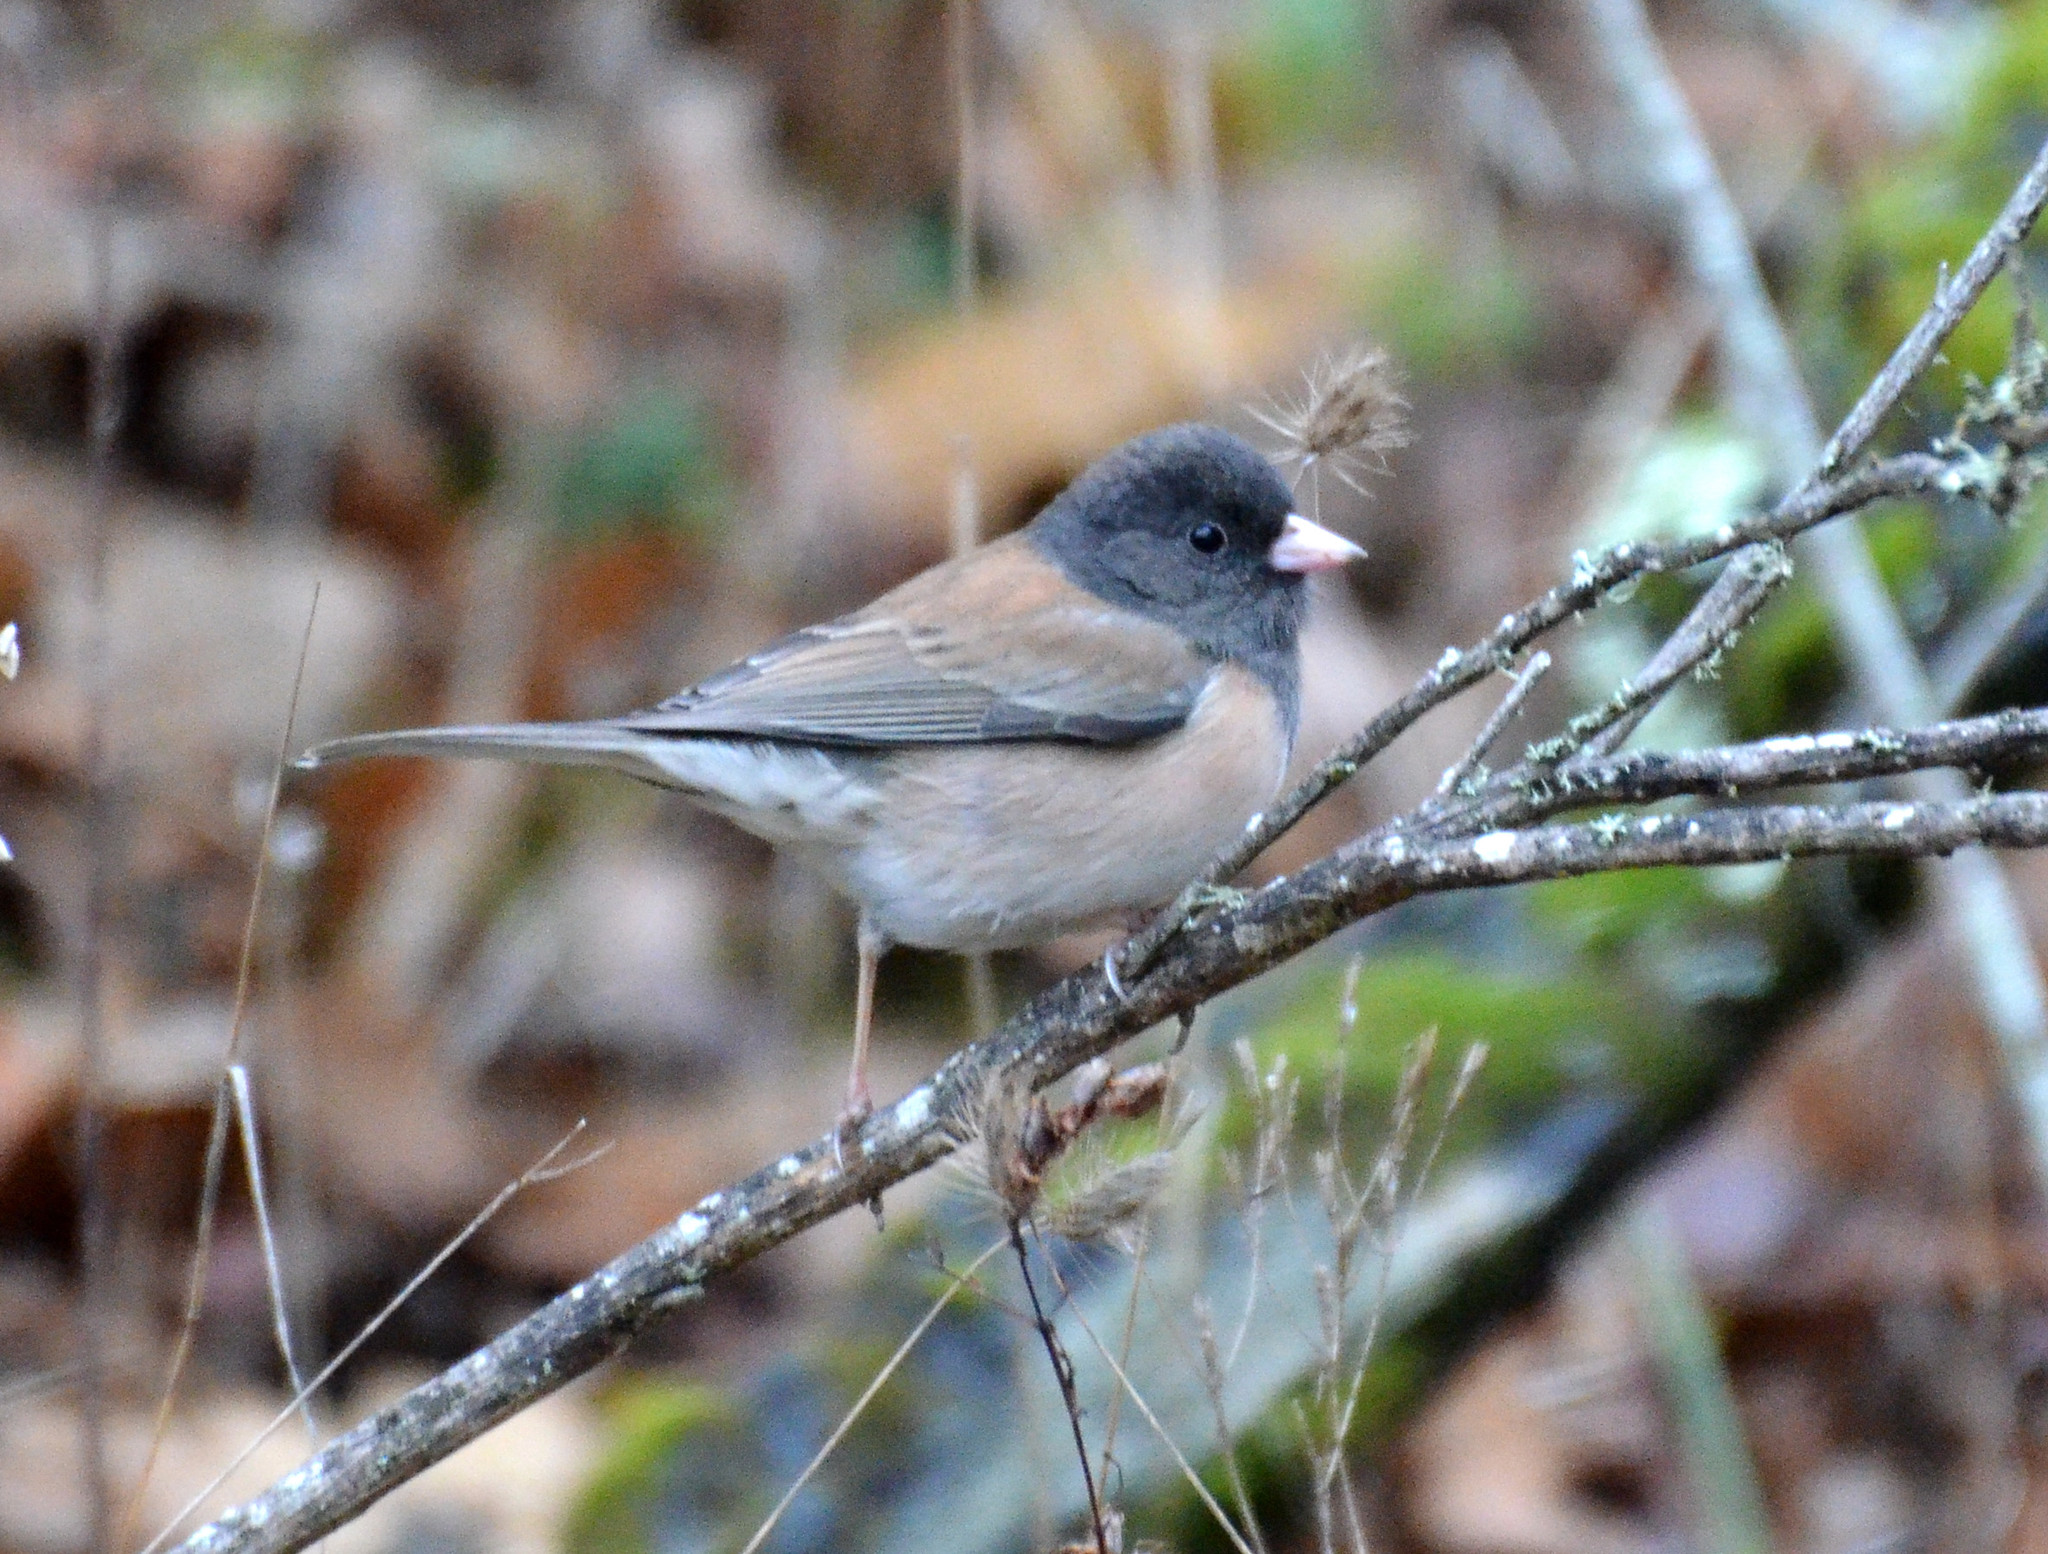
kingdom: Animalia
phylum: Chordata
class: Aves
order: Passeriformes
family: Passerellidae
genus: Junco
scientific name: Junco hyemalis
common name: Dark-eyed junco
